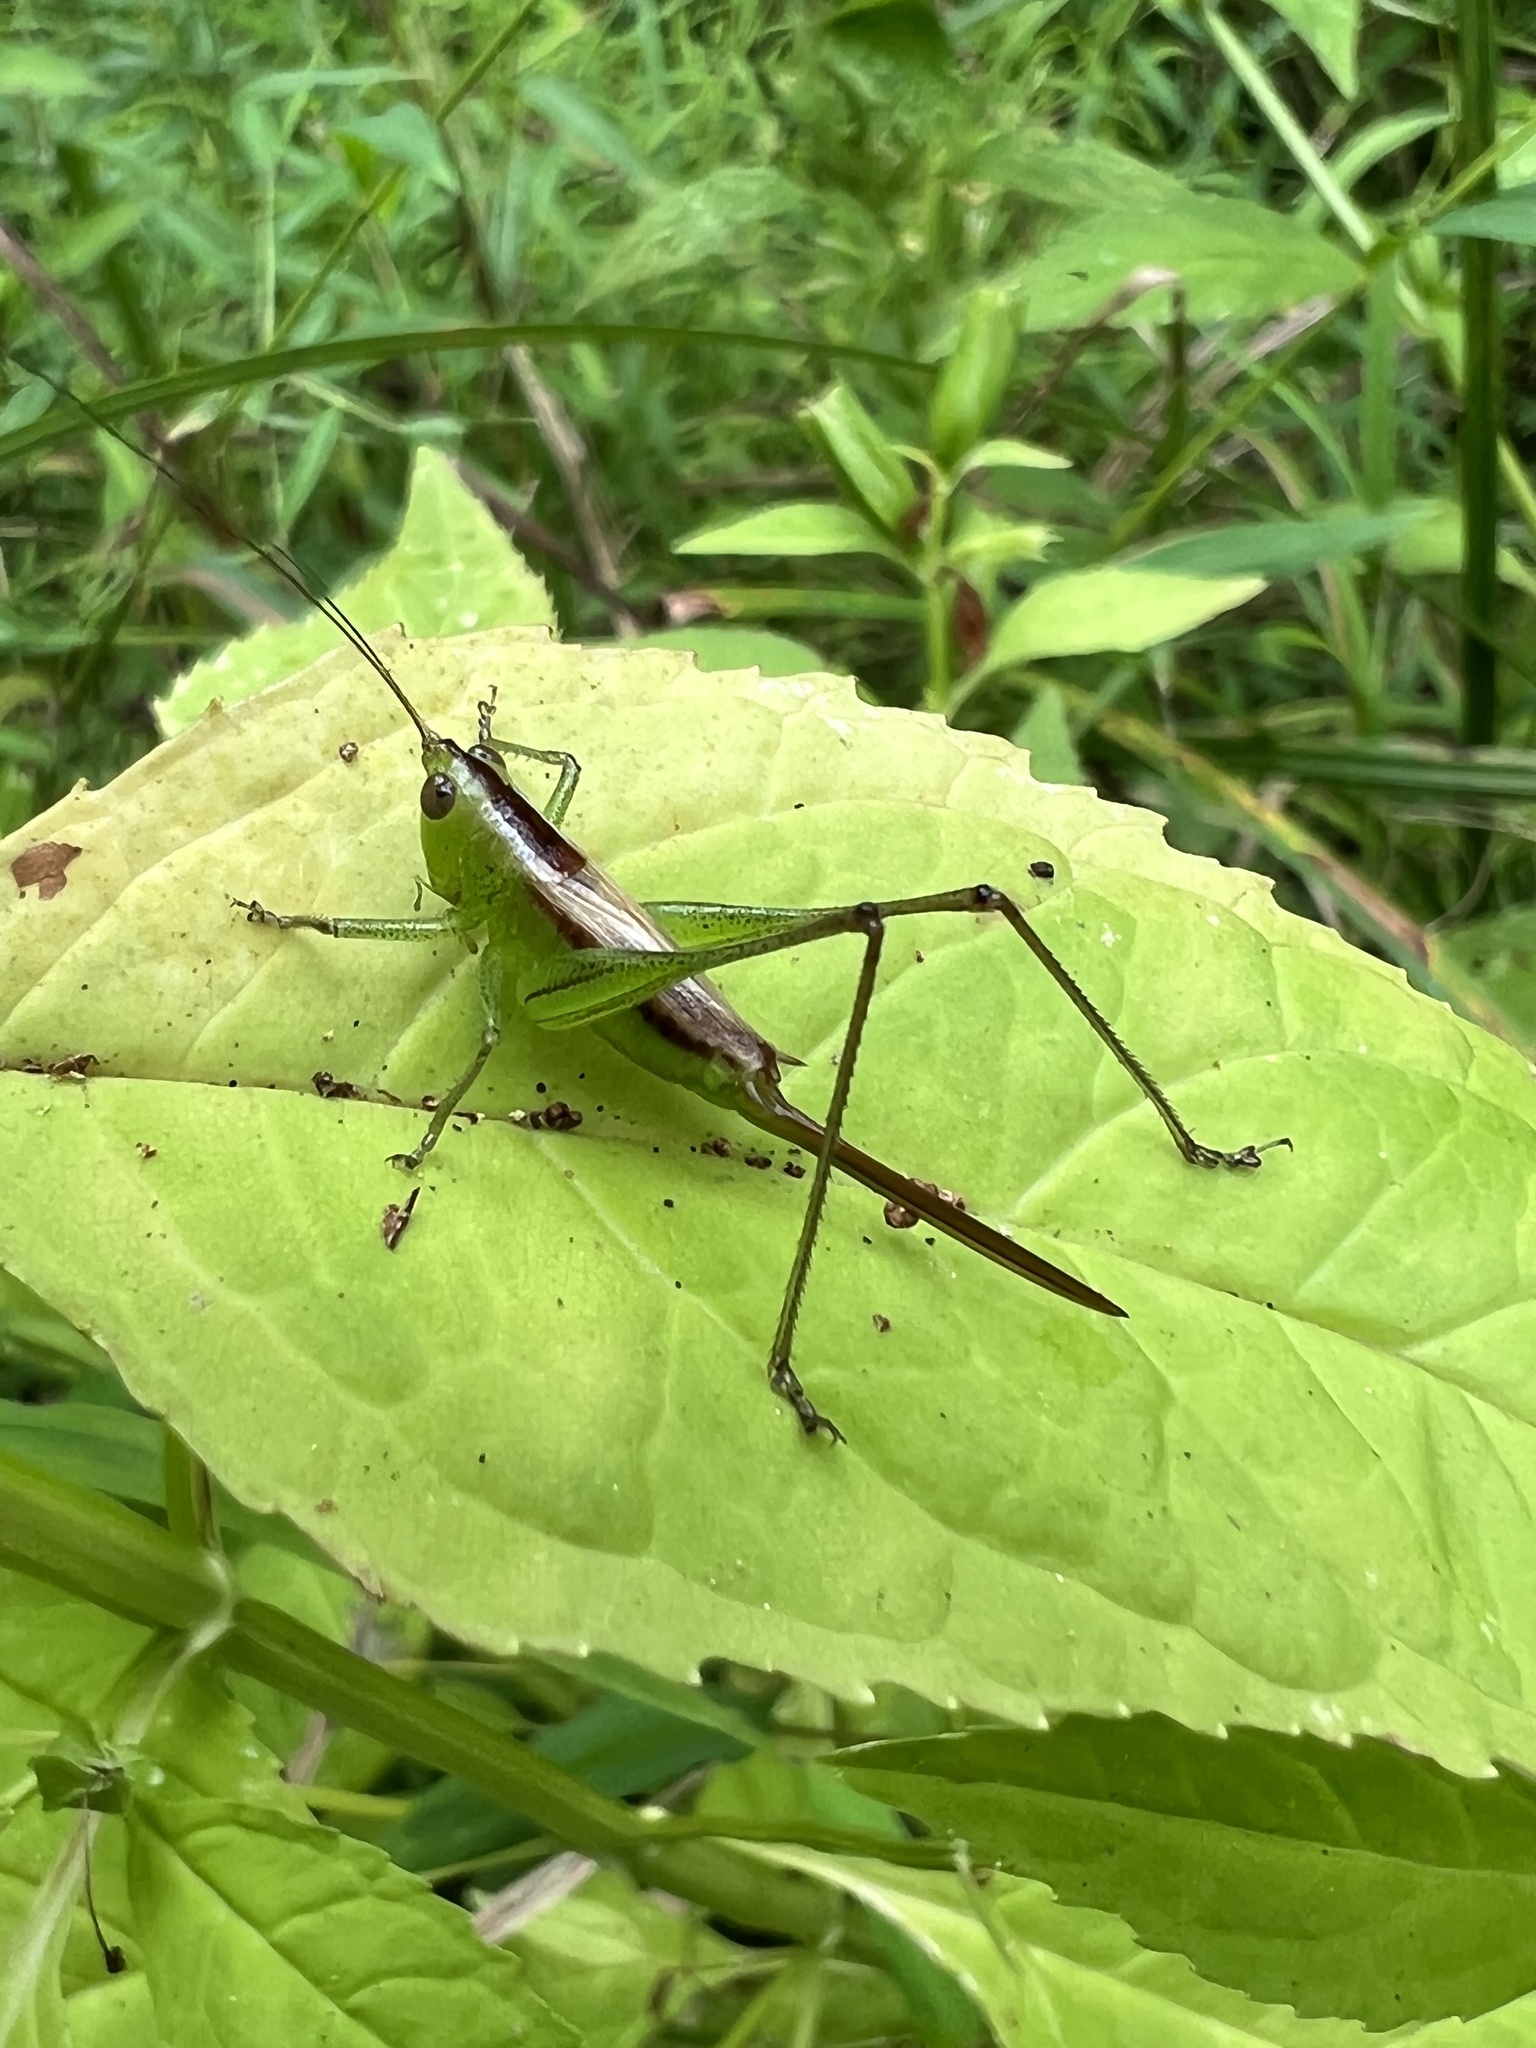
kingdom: Animalia
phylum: Arthropoda
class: Insecta
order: Orthoptera
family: Tettigoniidae
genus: Conocephalus
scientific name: Conocephalus brevipennis
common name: Short-winged meadow katydid
